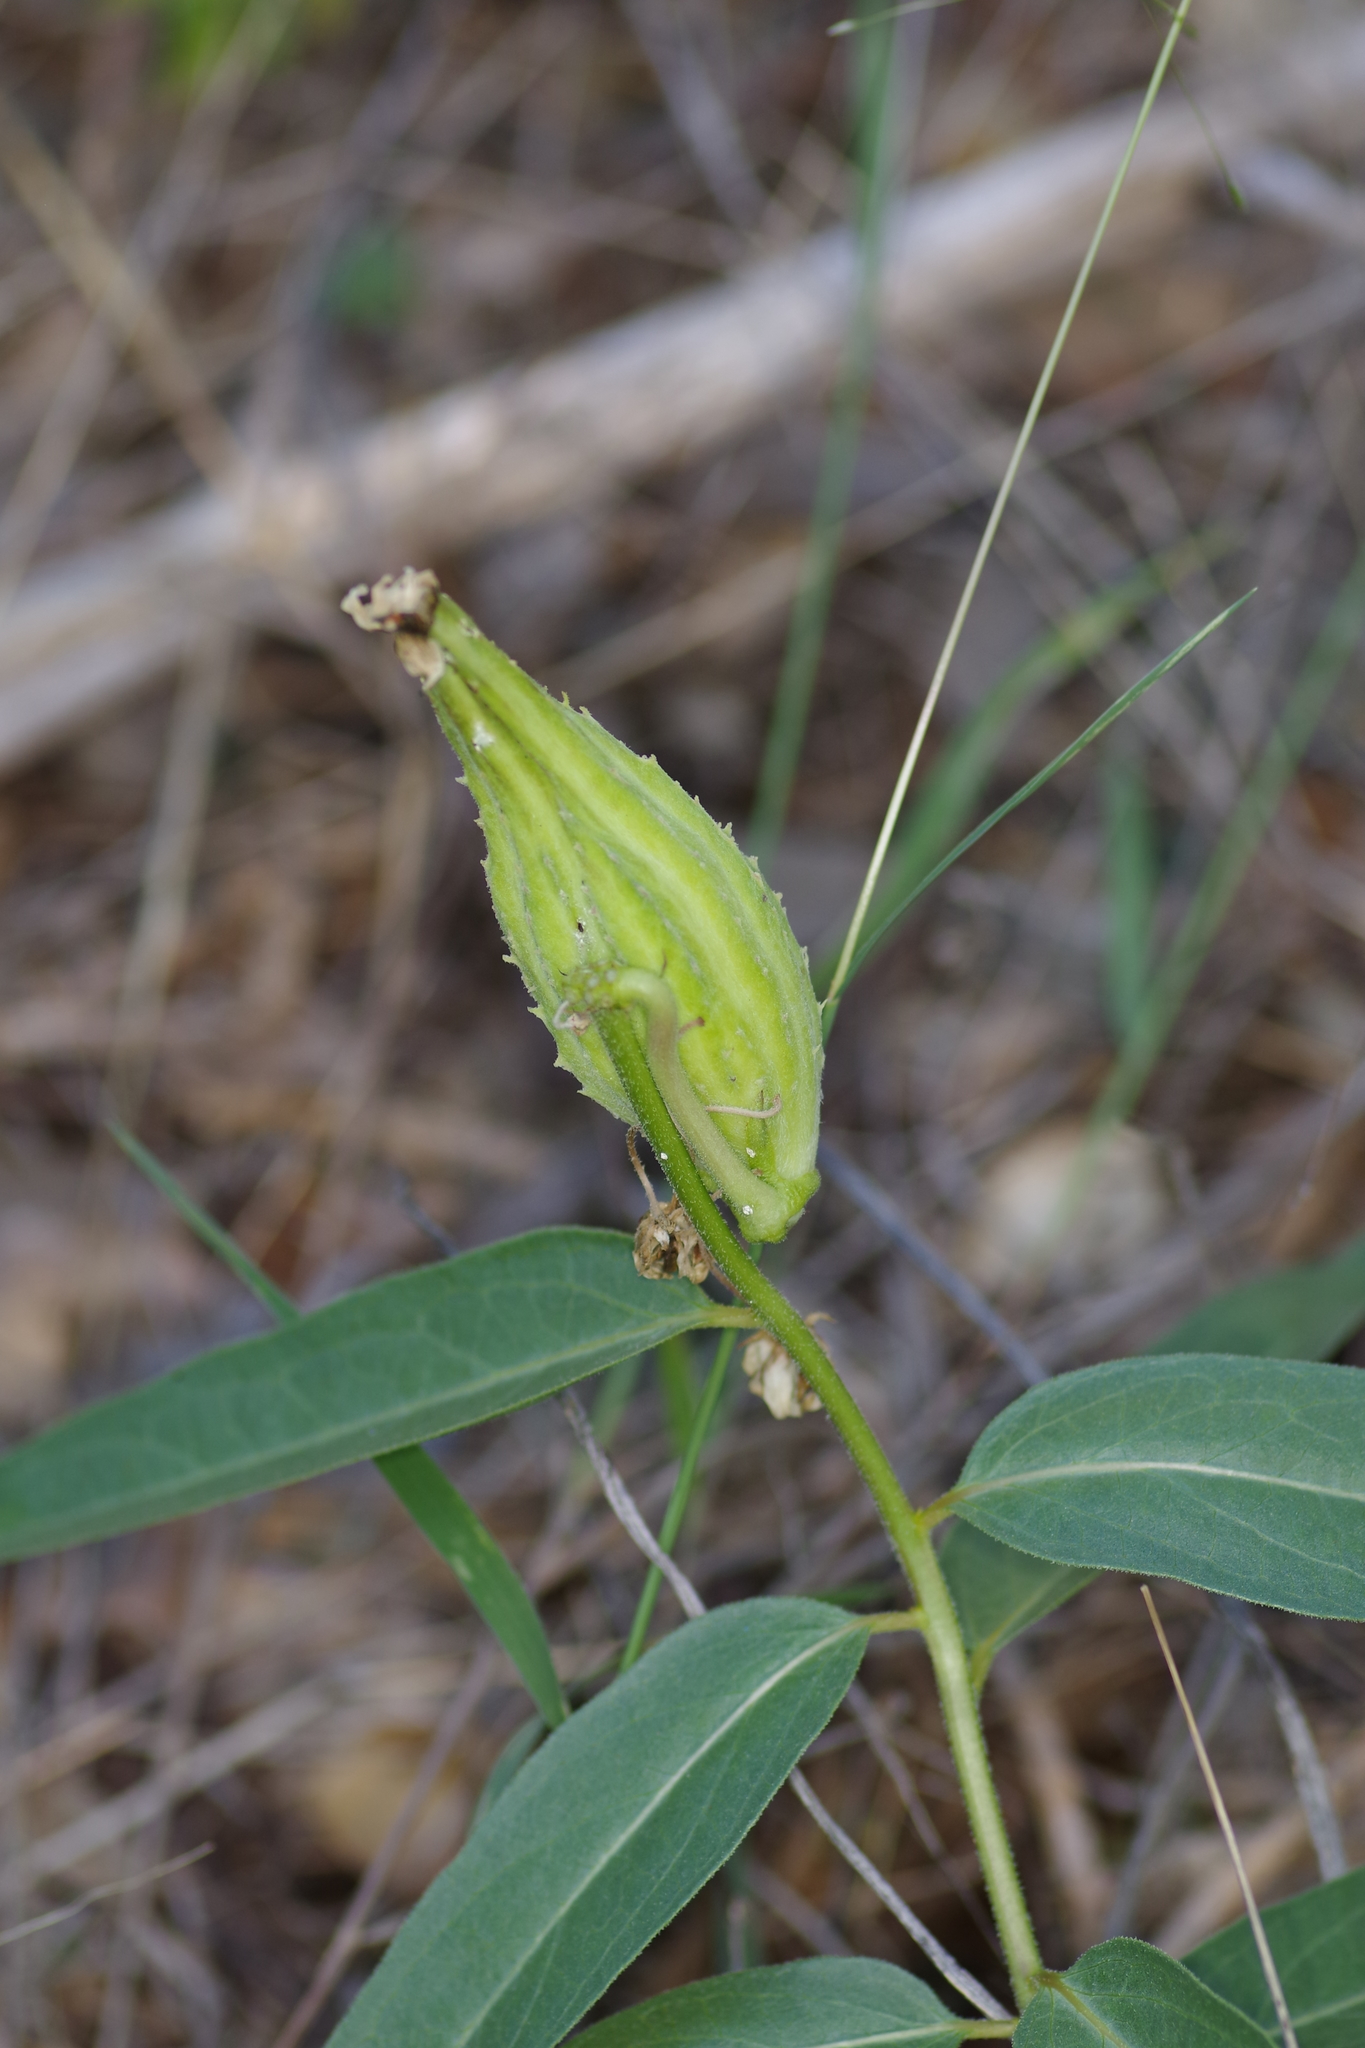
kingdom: Plantae
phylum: Tracheophyta
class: Magnoliopsida
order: Gentianales
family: Apocynaceae
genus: Asclepias
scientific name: Asclepias asperula
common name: Antelope horns
